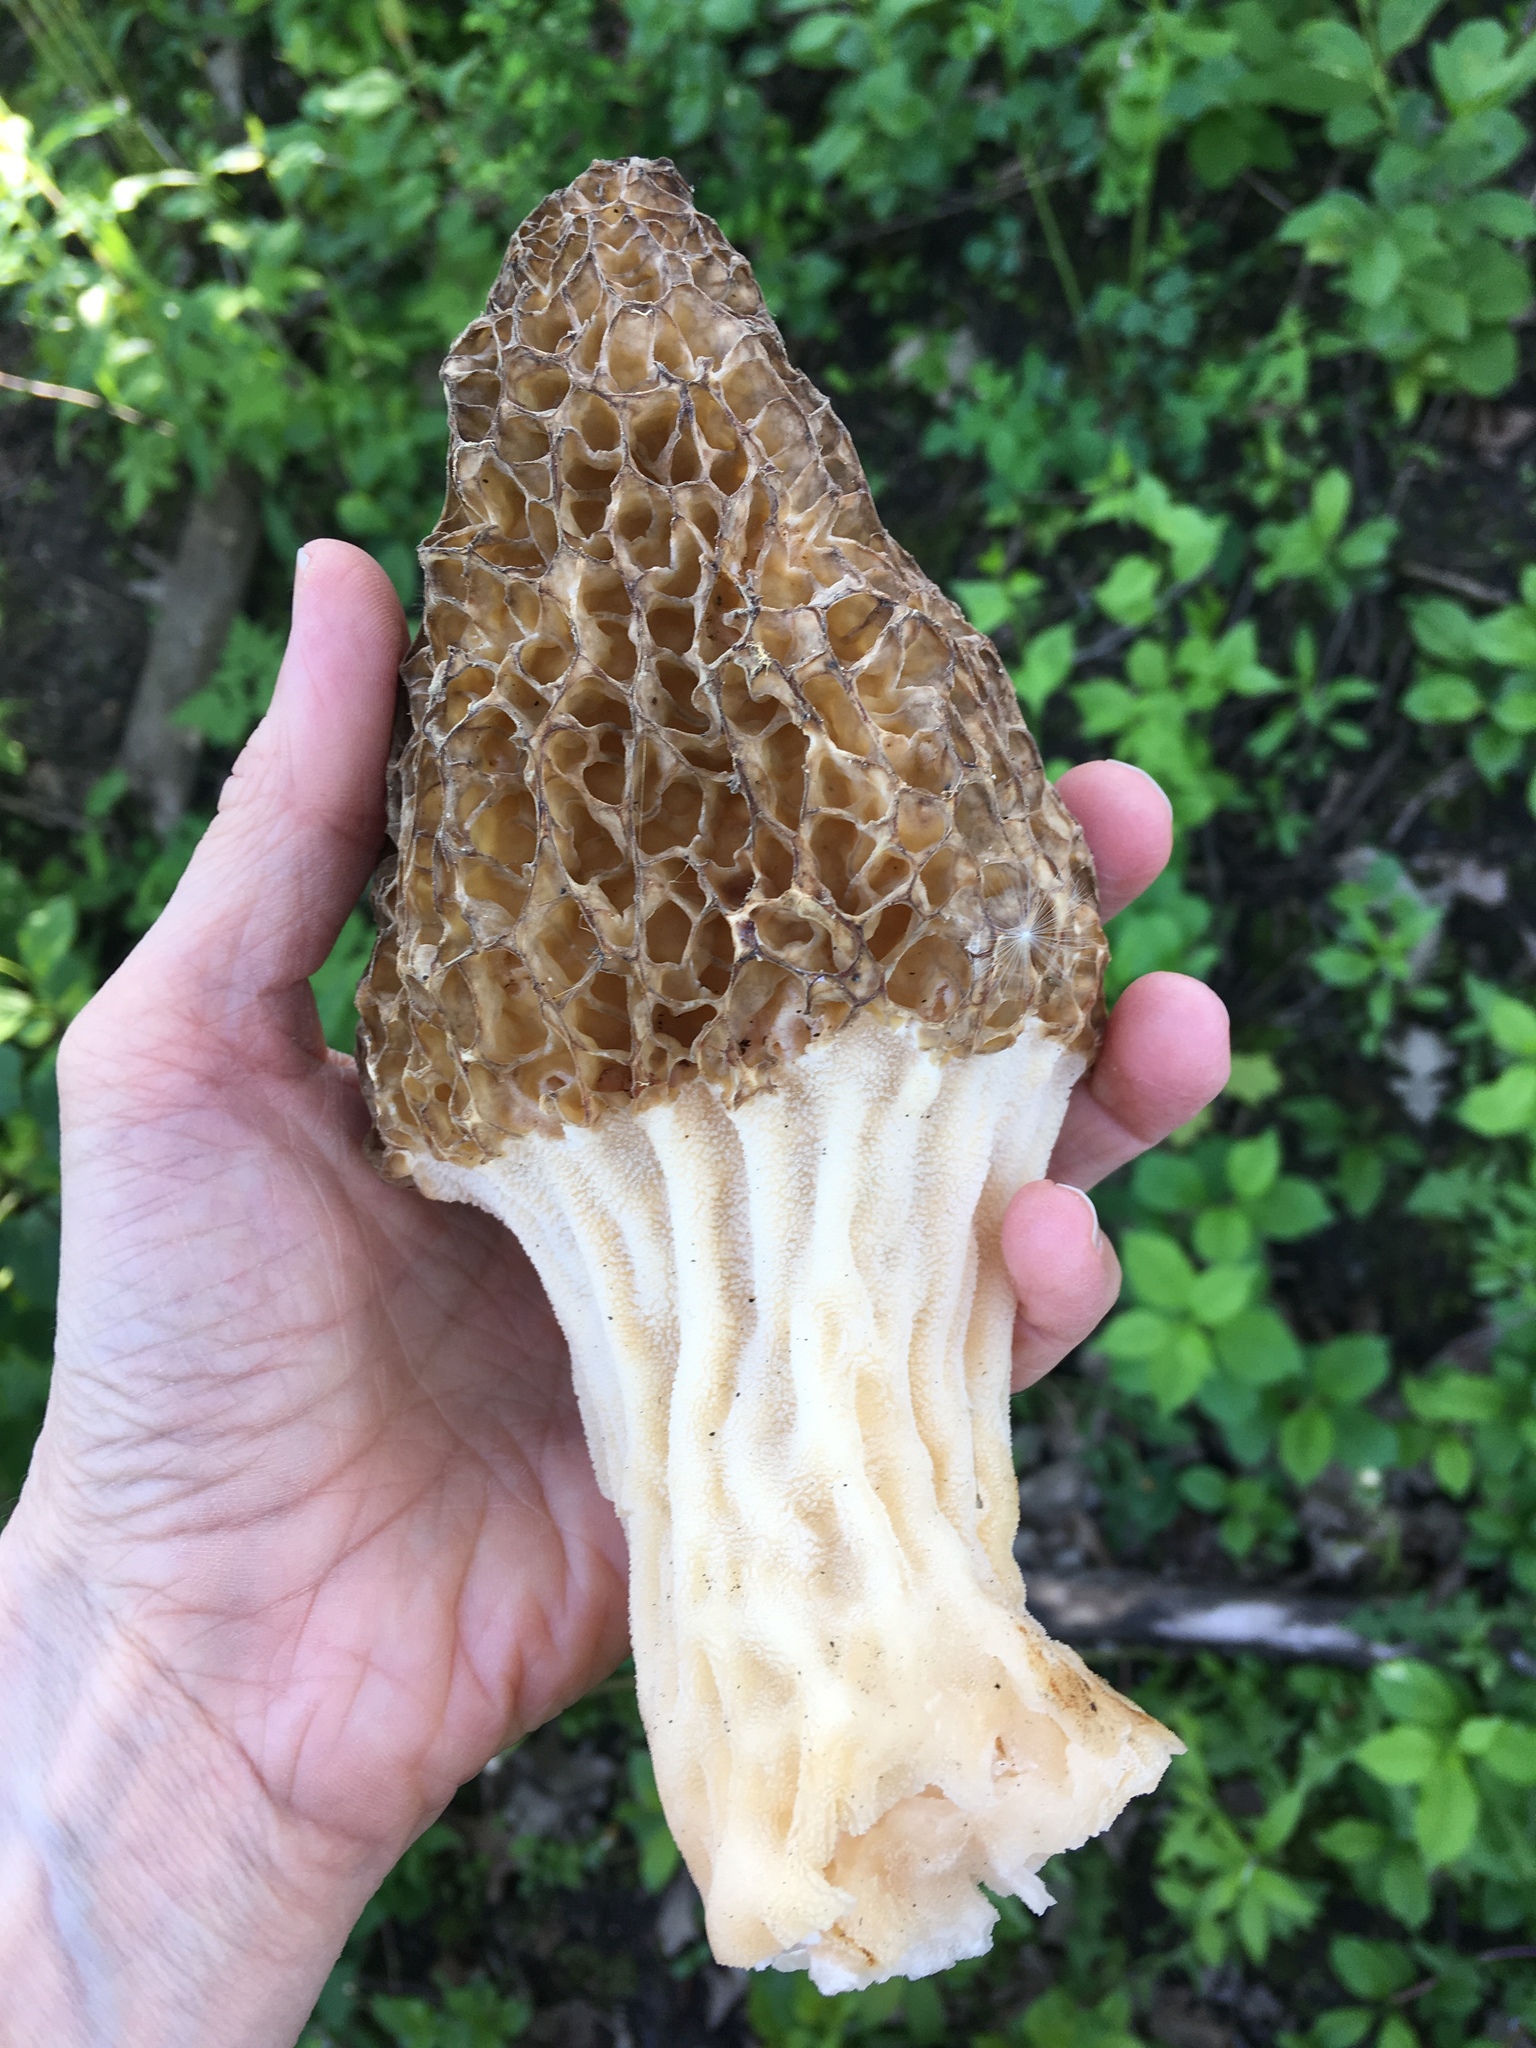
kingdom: Fungi
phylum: Ascomycota
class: Pezizomycetes
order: Pezizales
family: Morchellaceae
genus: Morchella
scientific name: Morchella americana
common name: White morel
